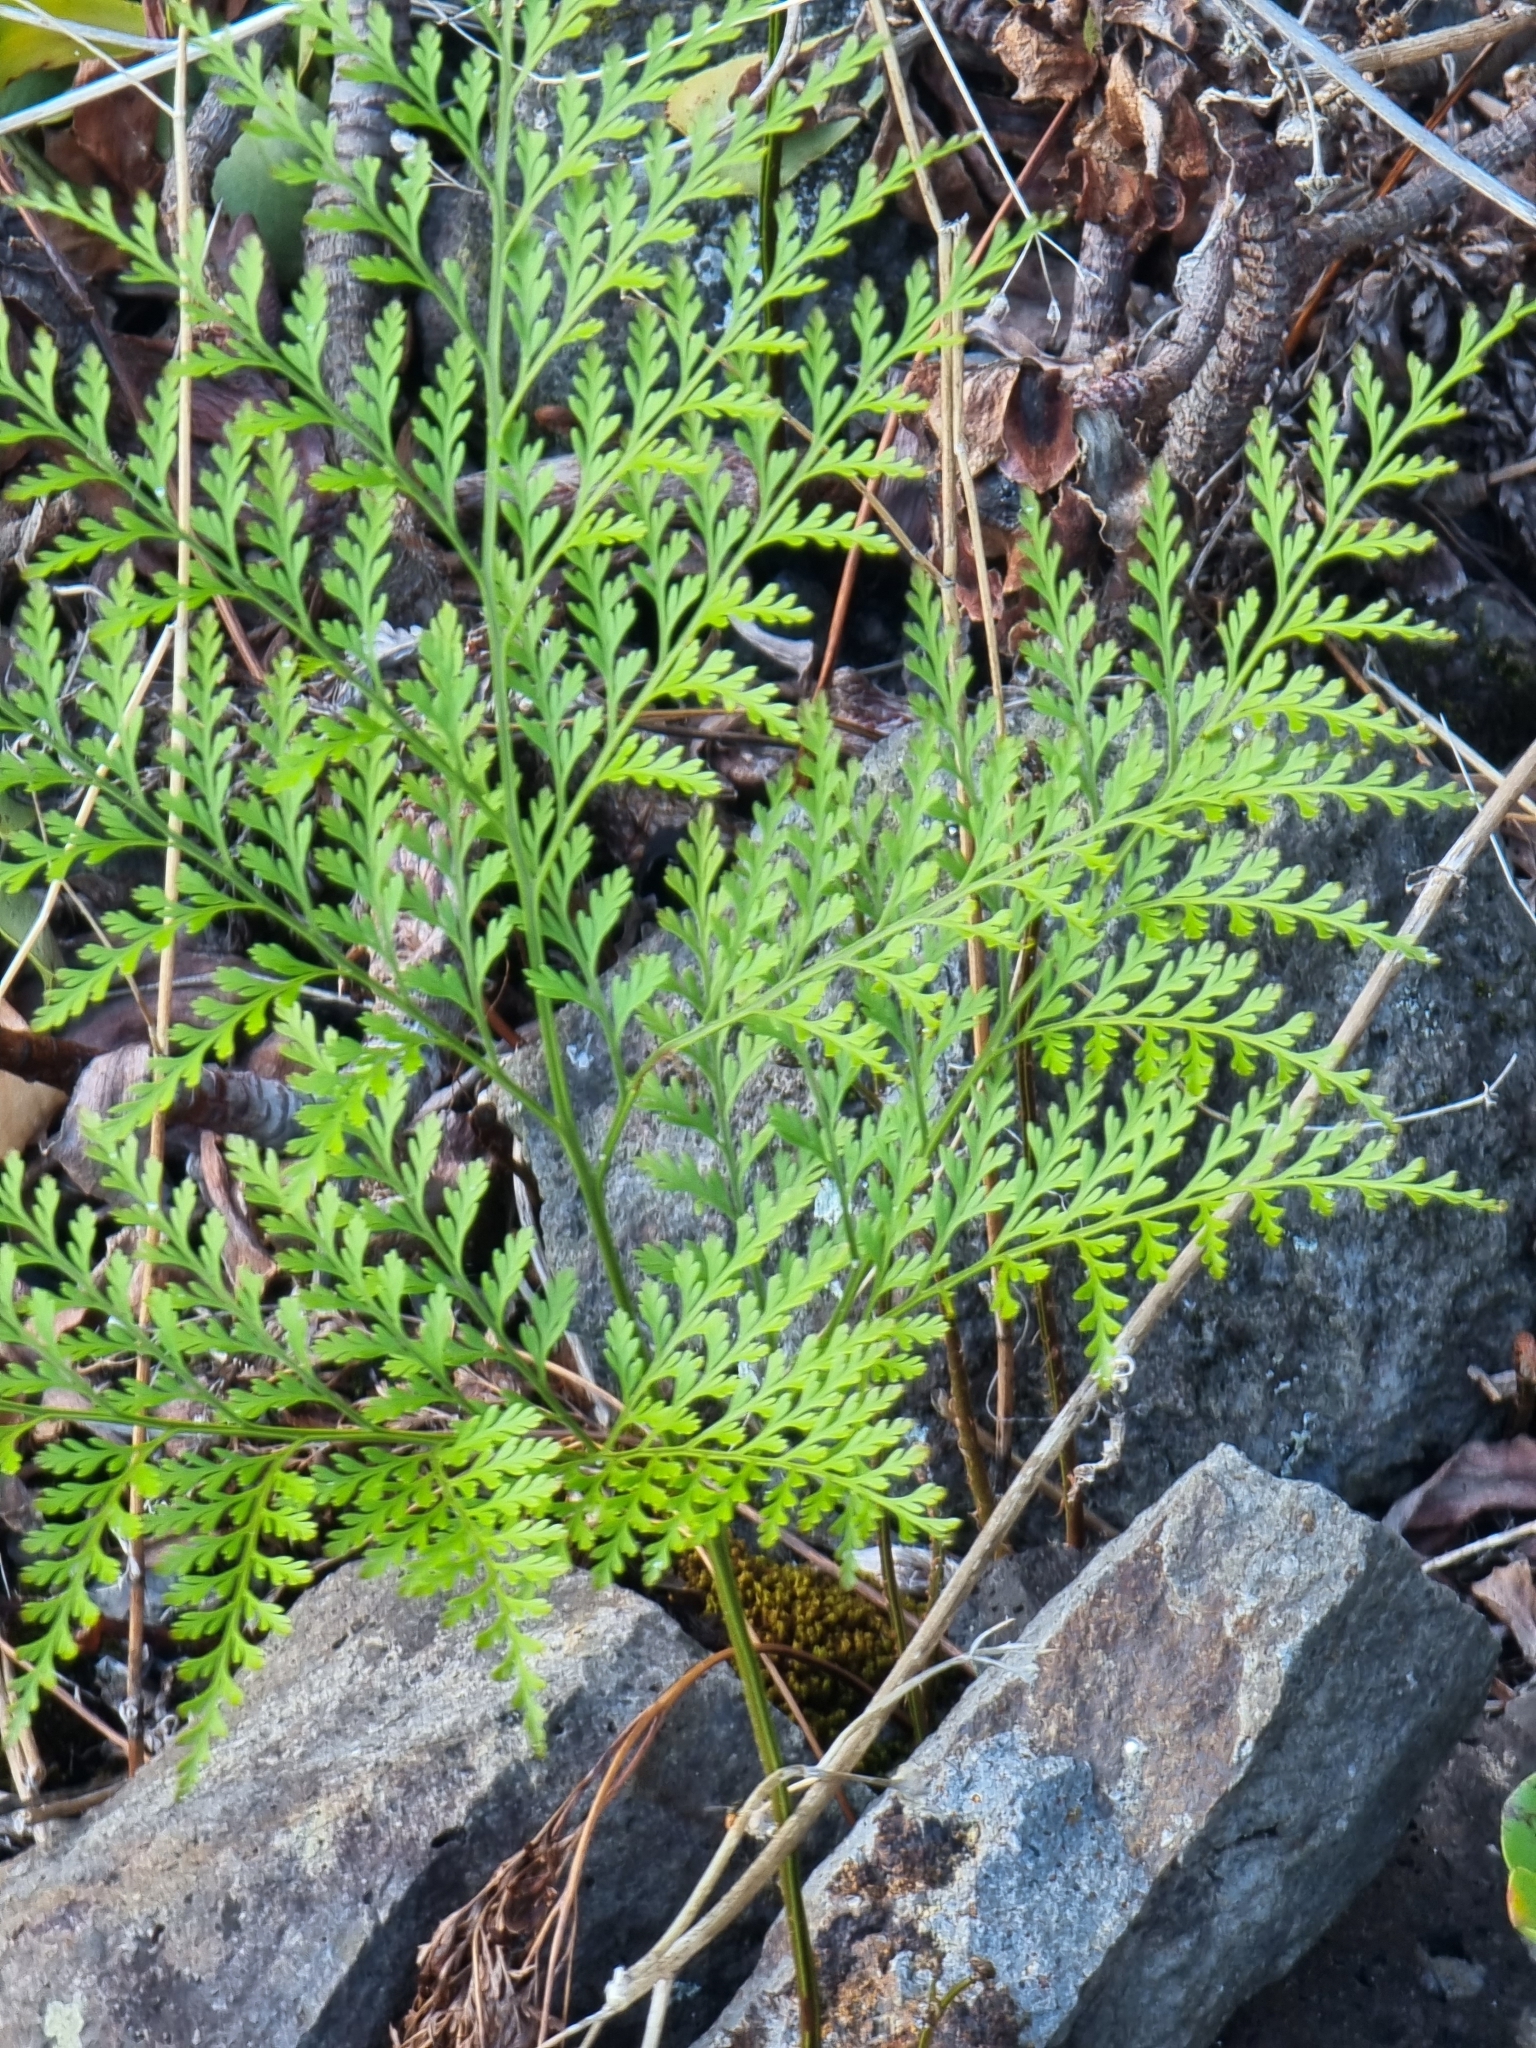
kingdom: Plantae
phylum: Tracheophyta
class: Polypodiopsida
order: Polypodiales
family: Davalliaceae
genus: Davallia
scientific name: Davallia canariensis
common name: Hare's-foot fern
